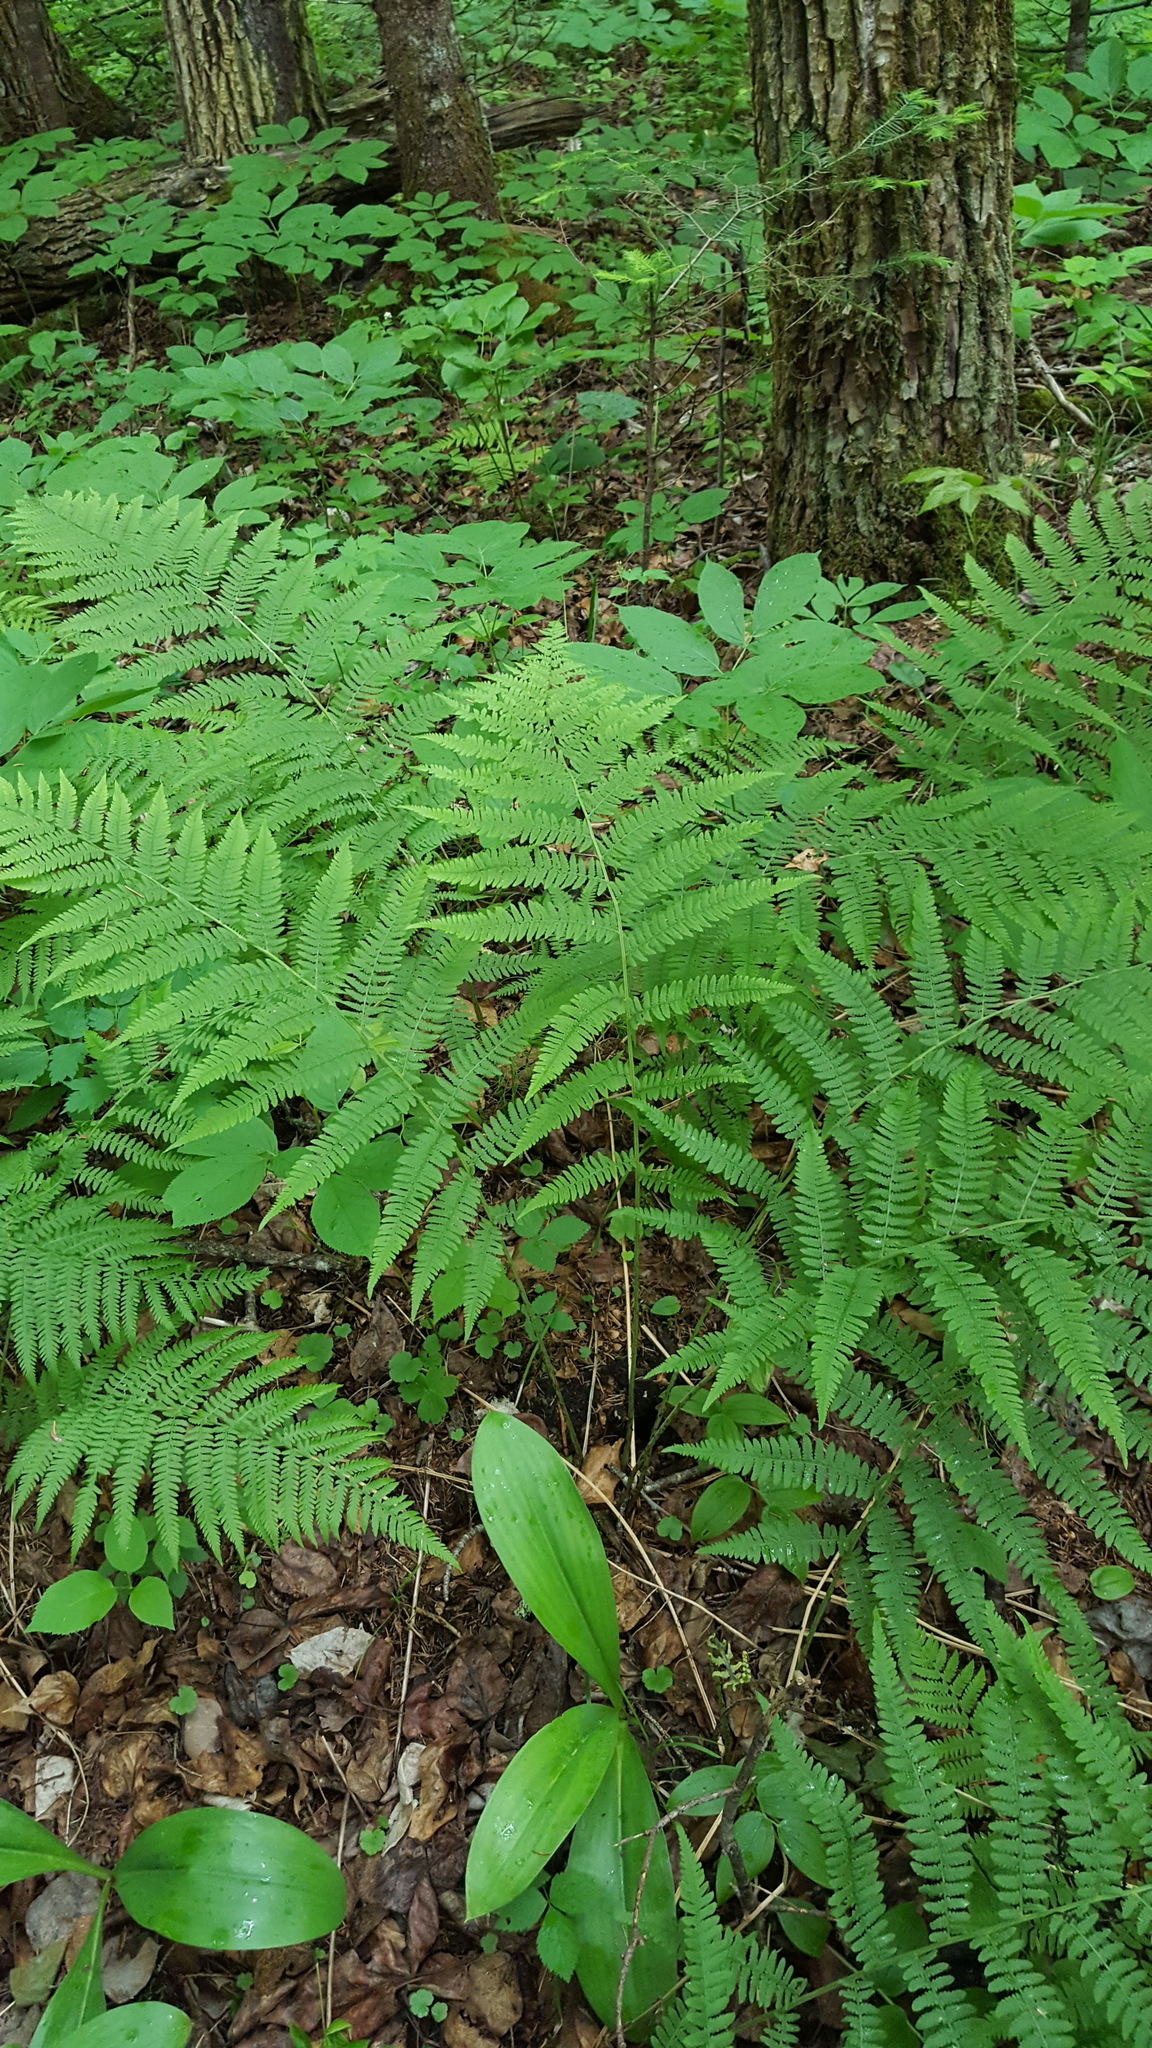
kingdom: Plantae
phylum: Tracheophyta
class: Polypodiopsida
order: Polypodiales
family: Athyriaceae
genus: Athyrium
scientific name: Athyrium angustum
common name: Northern lady fern
